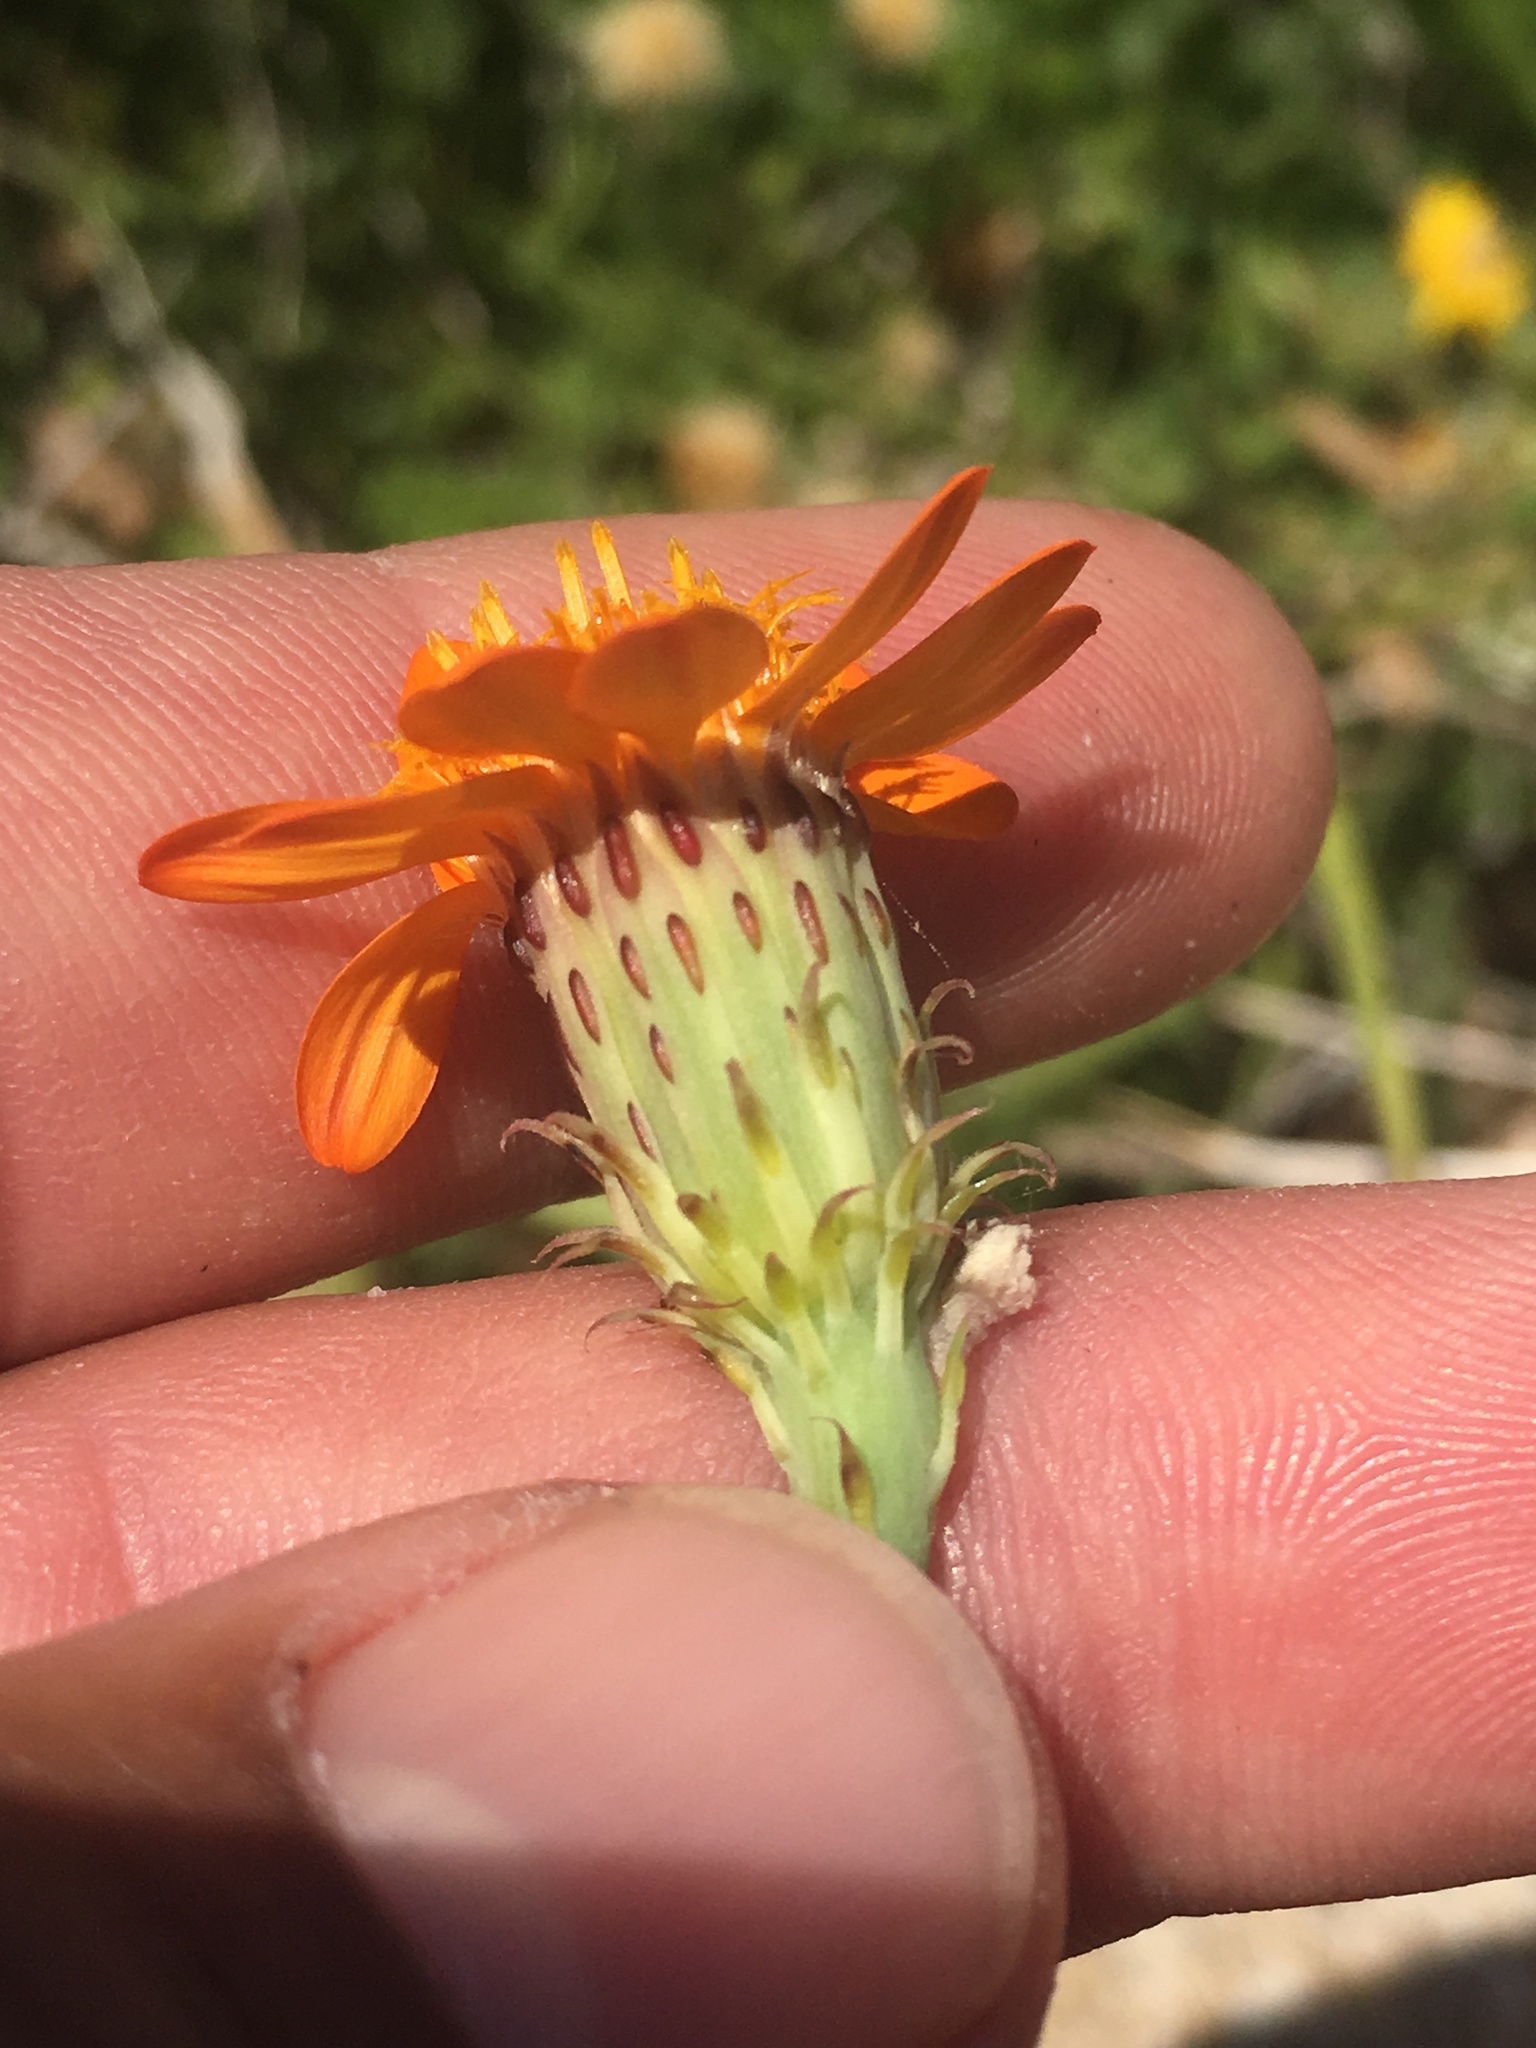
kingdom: Plantae
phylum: Tracheophyta
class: Magnoliopsida
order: Asterales
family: Asteraceae
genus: Adenophyllum
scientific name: Adenophyllum speciosum
